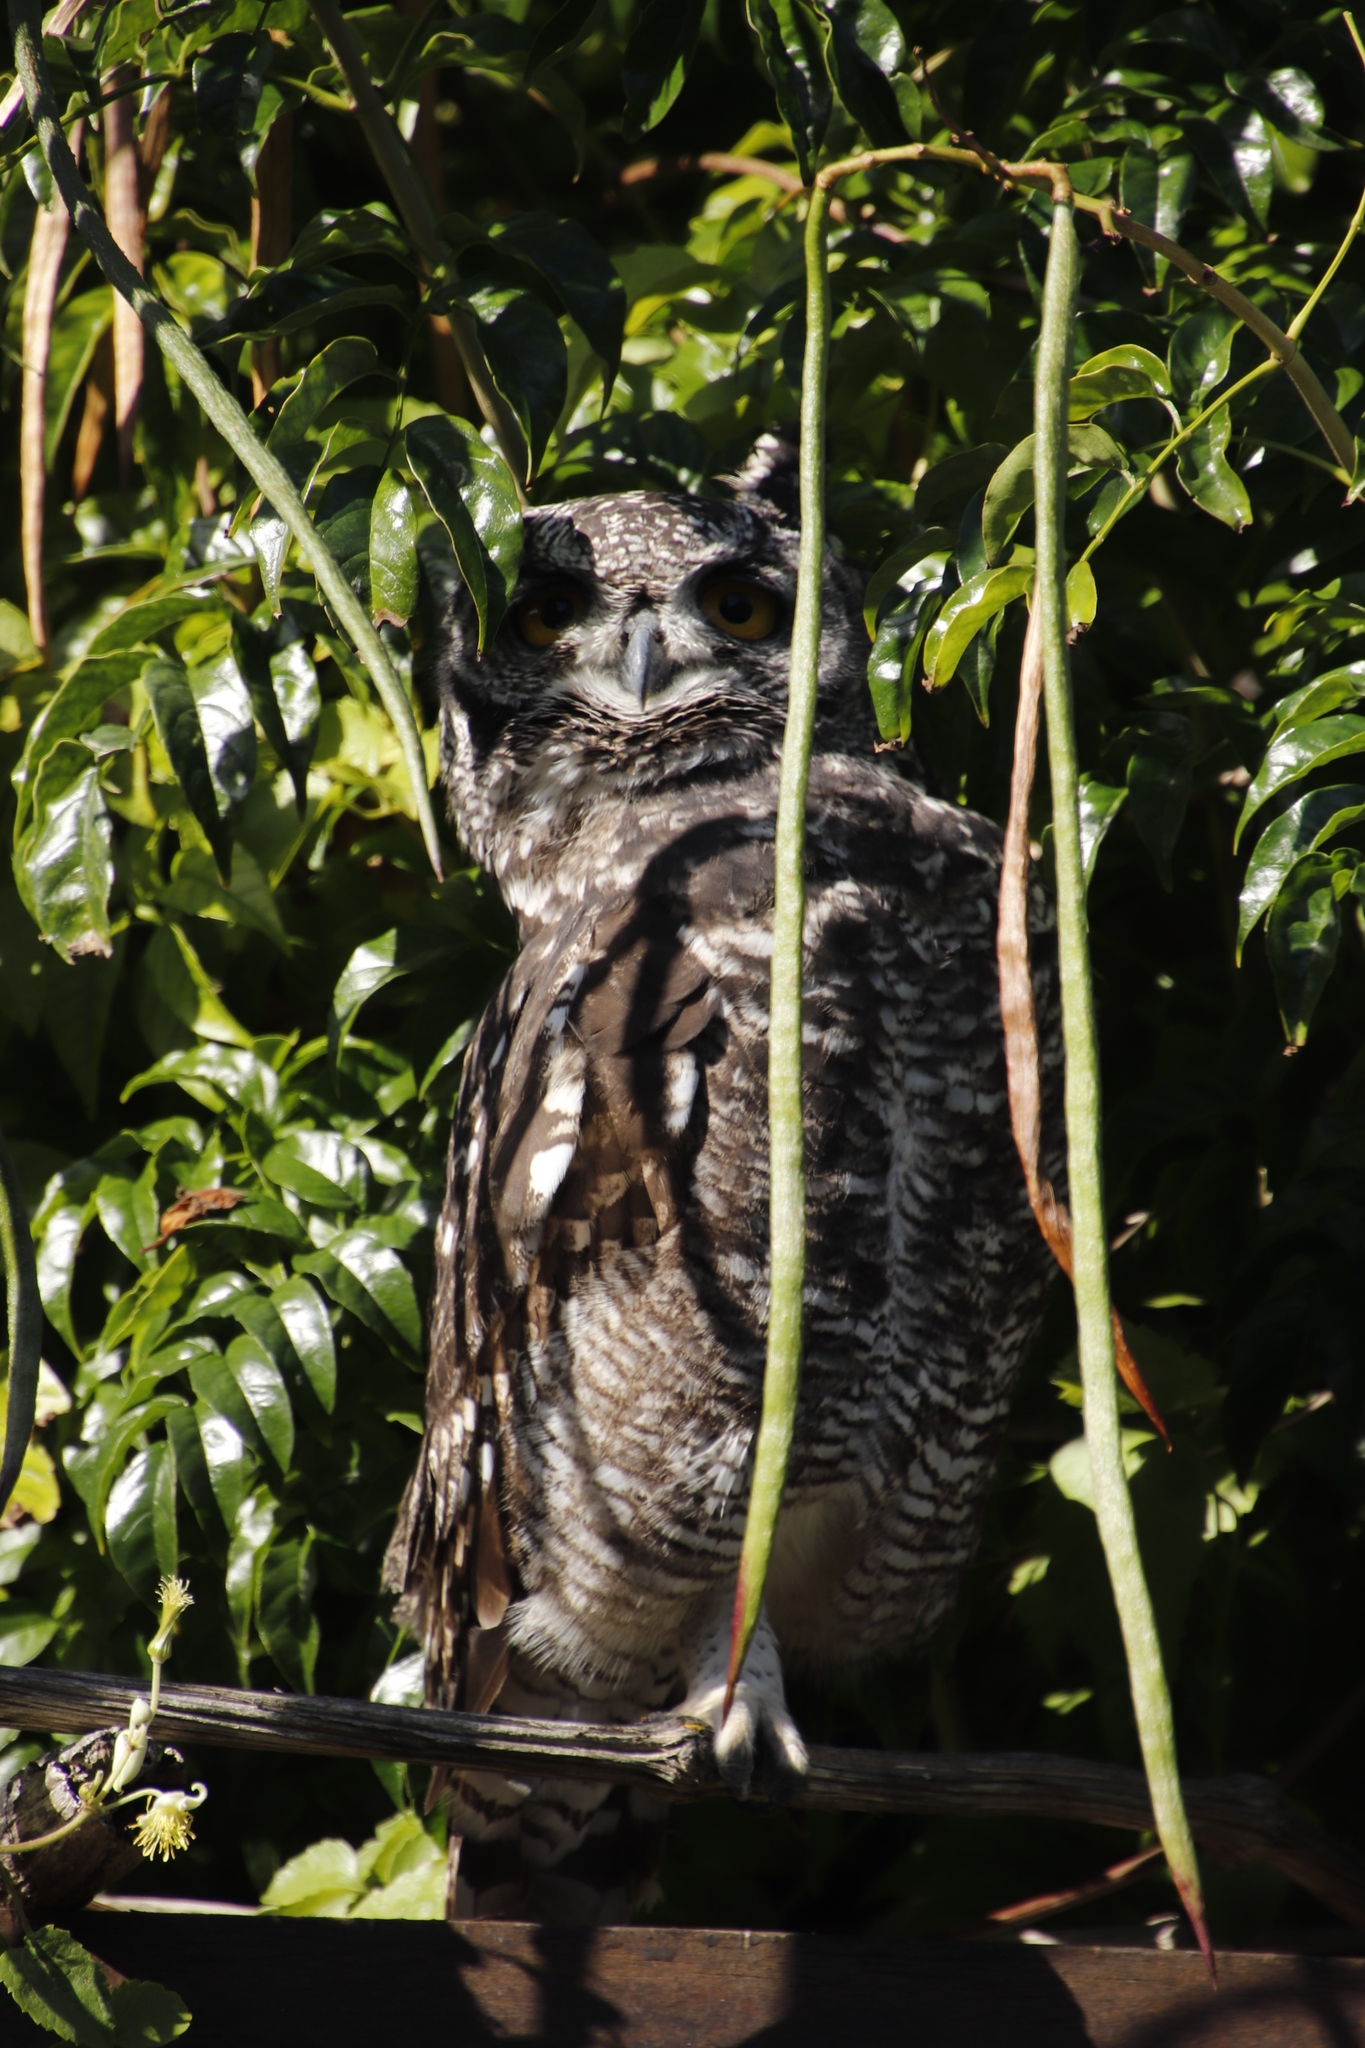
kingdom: Animalia
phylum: Chordata
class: Aves
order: Strigiformes
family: Strigidae
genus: Bubo
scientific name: Bubo africanus
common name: Spotted eagle-owl
